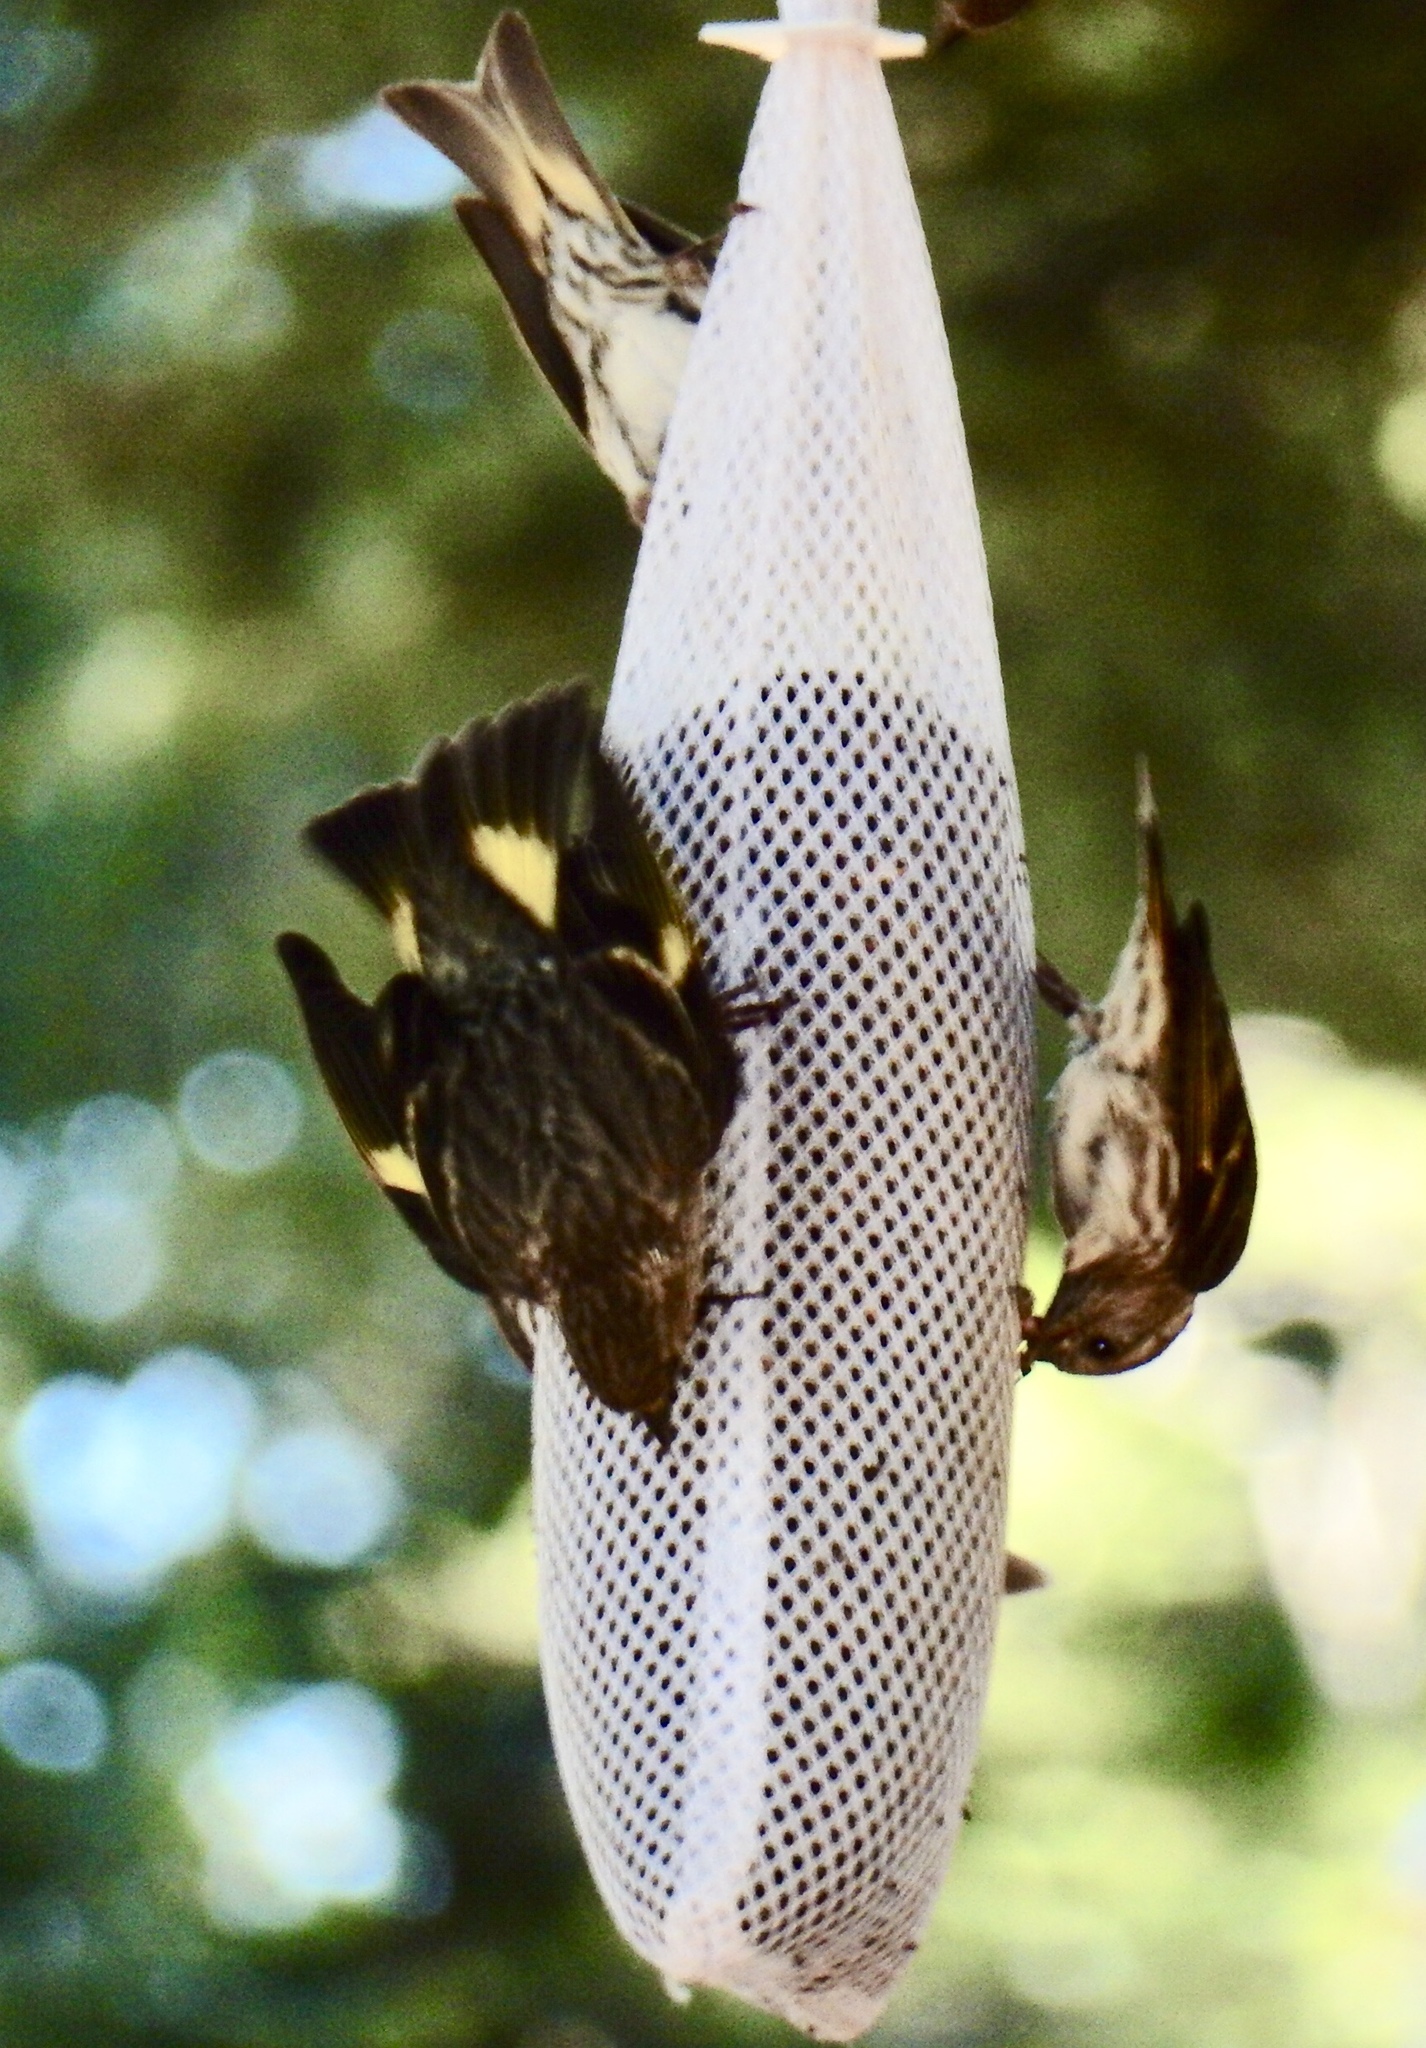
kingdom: Animalia
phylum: Chordata
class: Aves
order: Passeriformes
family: Fringillidae
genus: Spinus
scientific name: Spinus pinus
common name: Pine siskin
